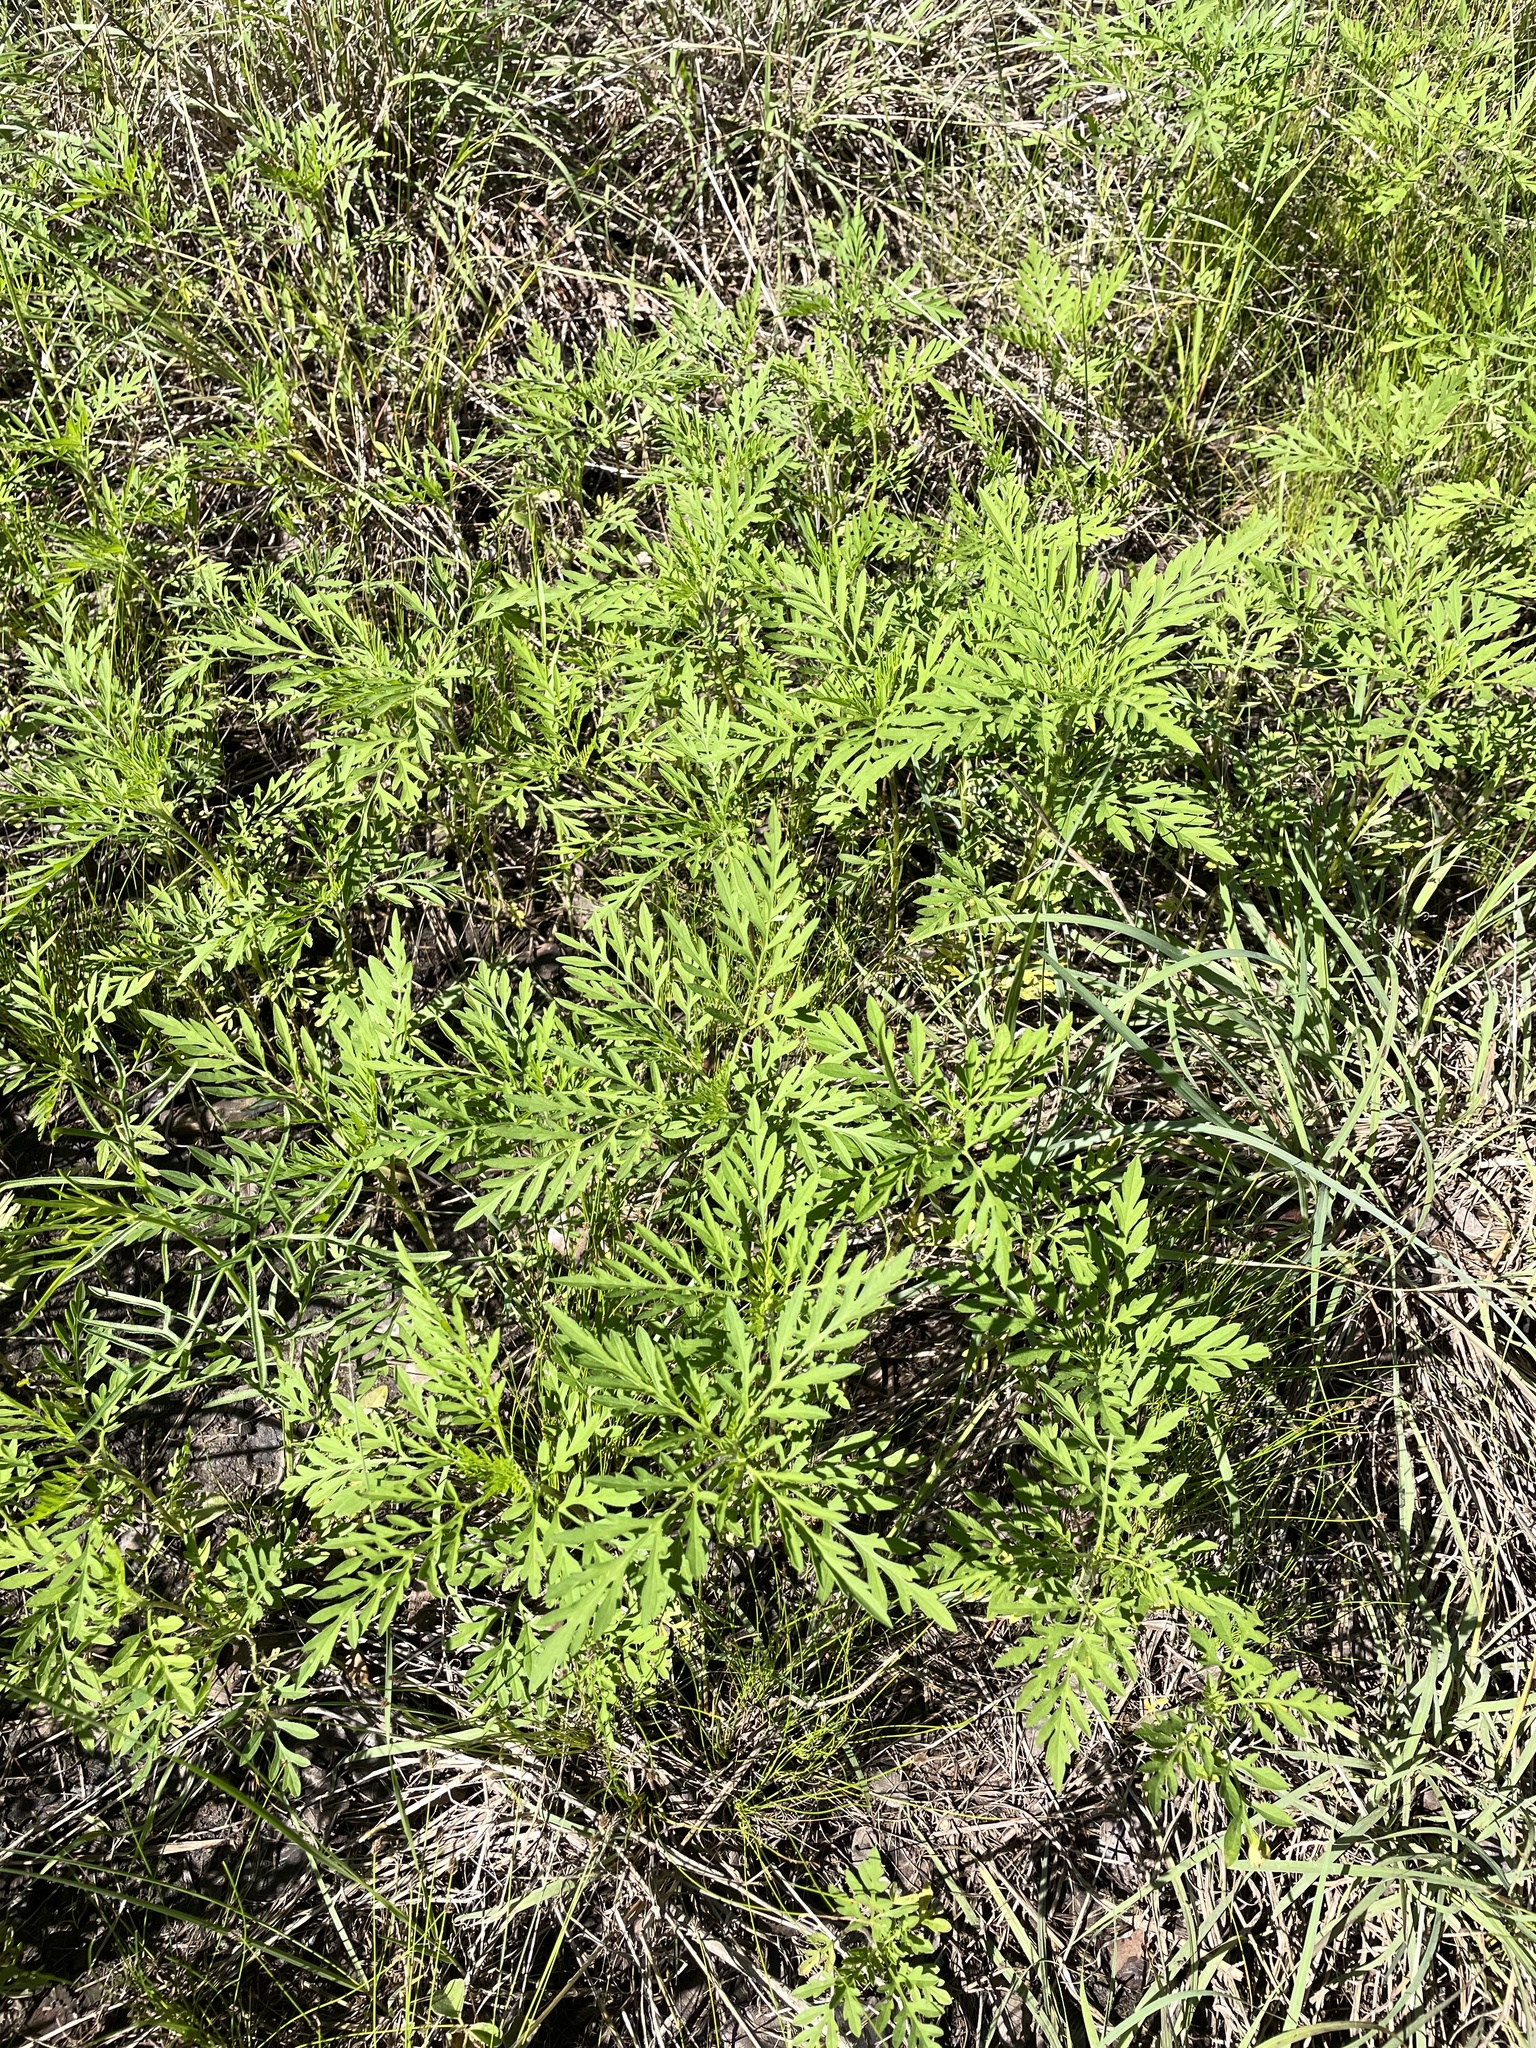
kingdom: Plantae
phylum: Tracheophyta
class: Magnoliopsida
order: Asterales
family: Asteraceae
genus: Ambrosia
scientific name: Ambrosia artemisiifolia
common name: Annual ragweed
